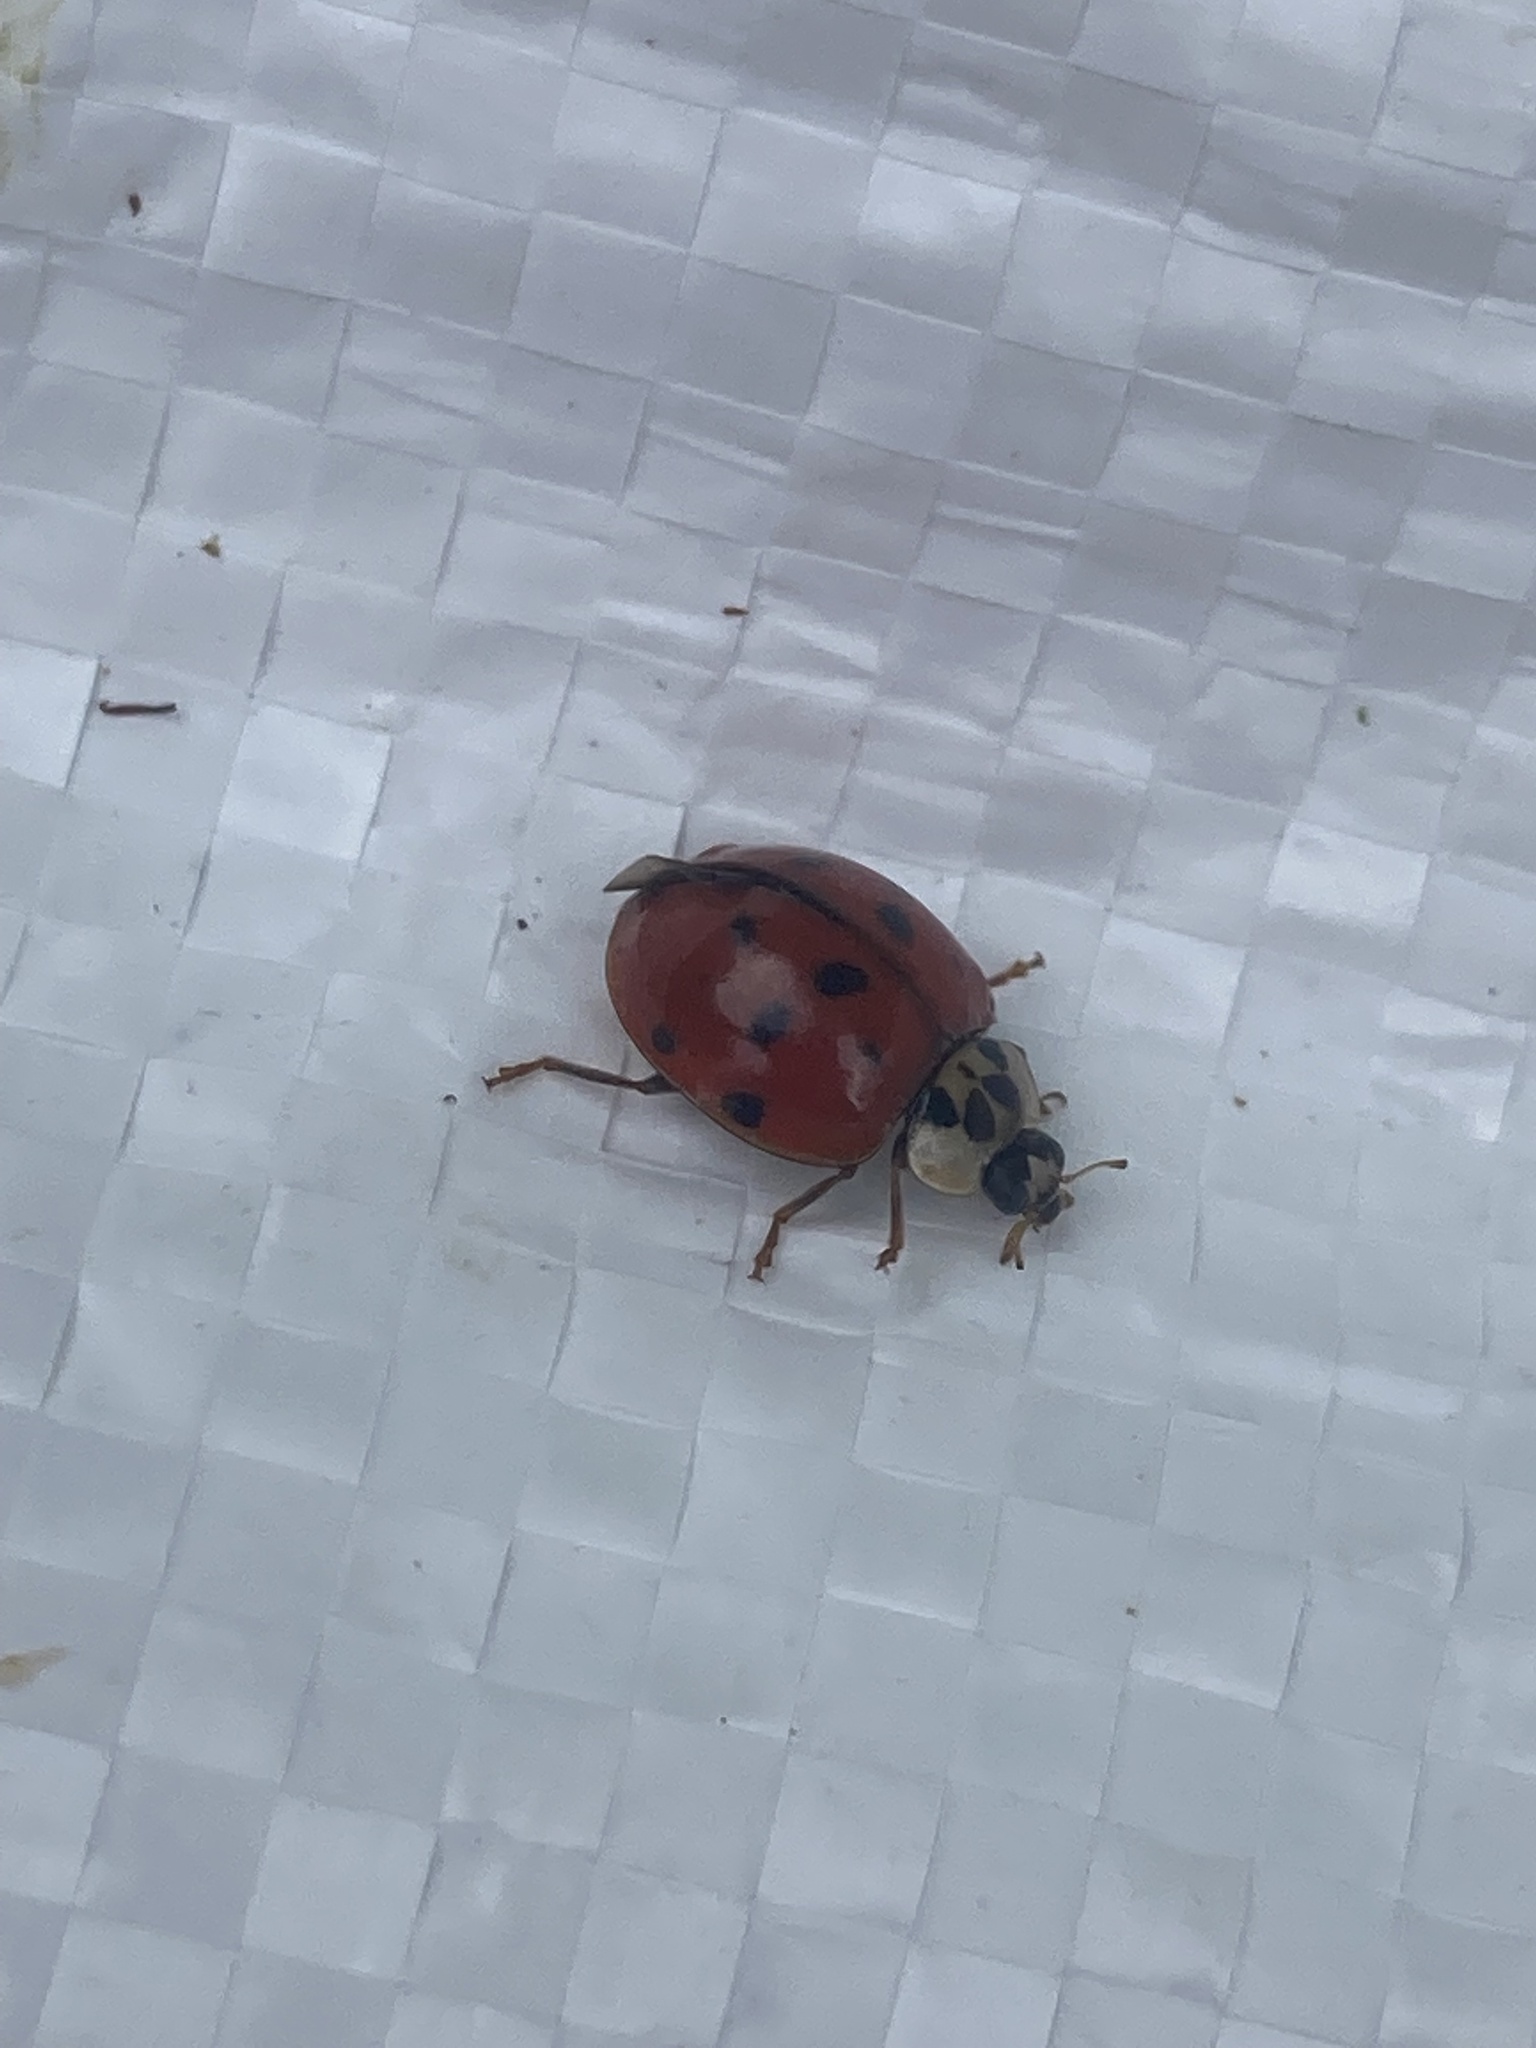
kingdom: Animalia
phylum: Arthropoda
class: Insecta
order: Coleoptera
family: Coccinellidae
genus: Harmonia
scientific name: Harmonia axyridis
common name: Harlequin ladybird
